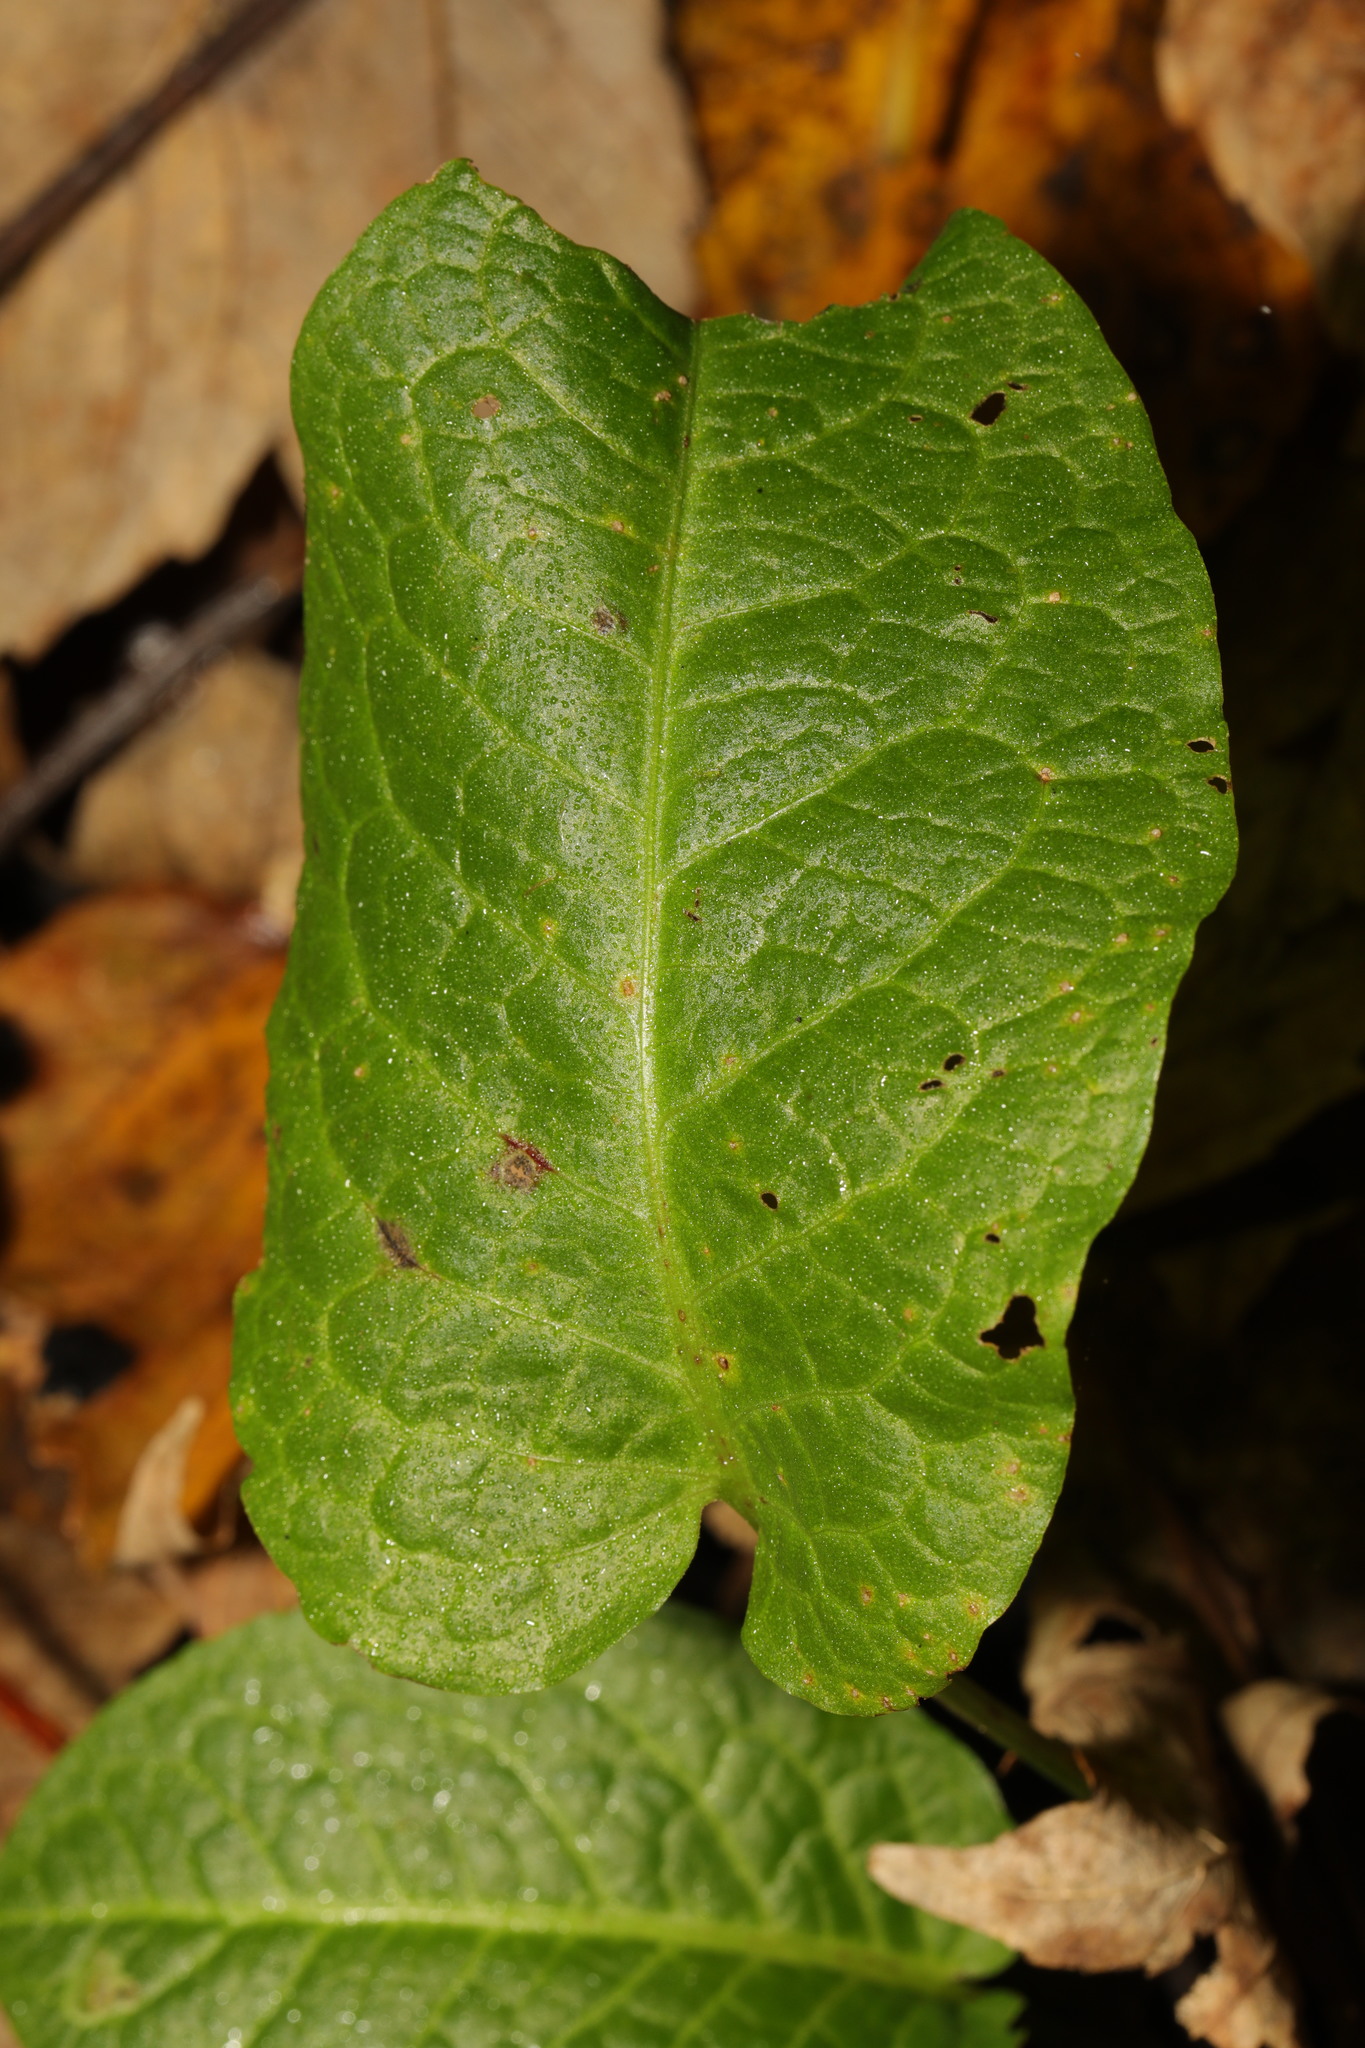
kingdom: Plantae
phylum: Tracheophyta
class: Magnoliopsida
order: Caryophyllales
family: Polygonaceae
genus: Rumex
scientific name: Rumex obtusifolius
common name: Bitter dock
